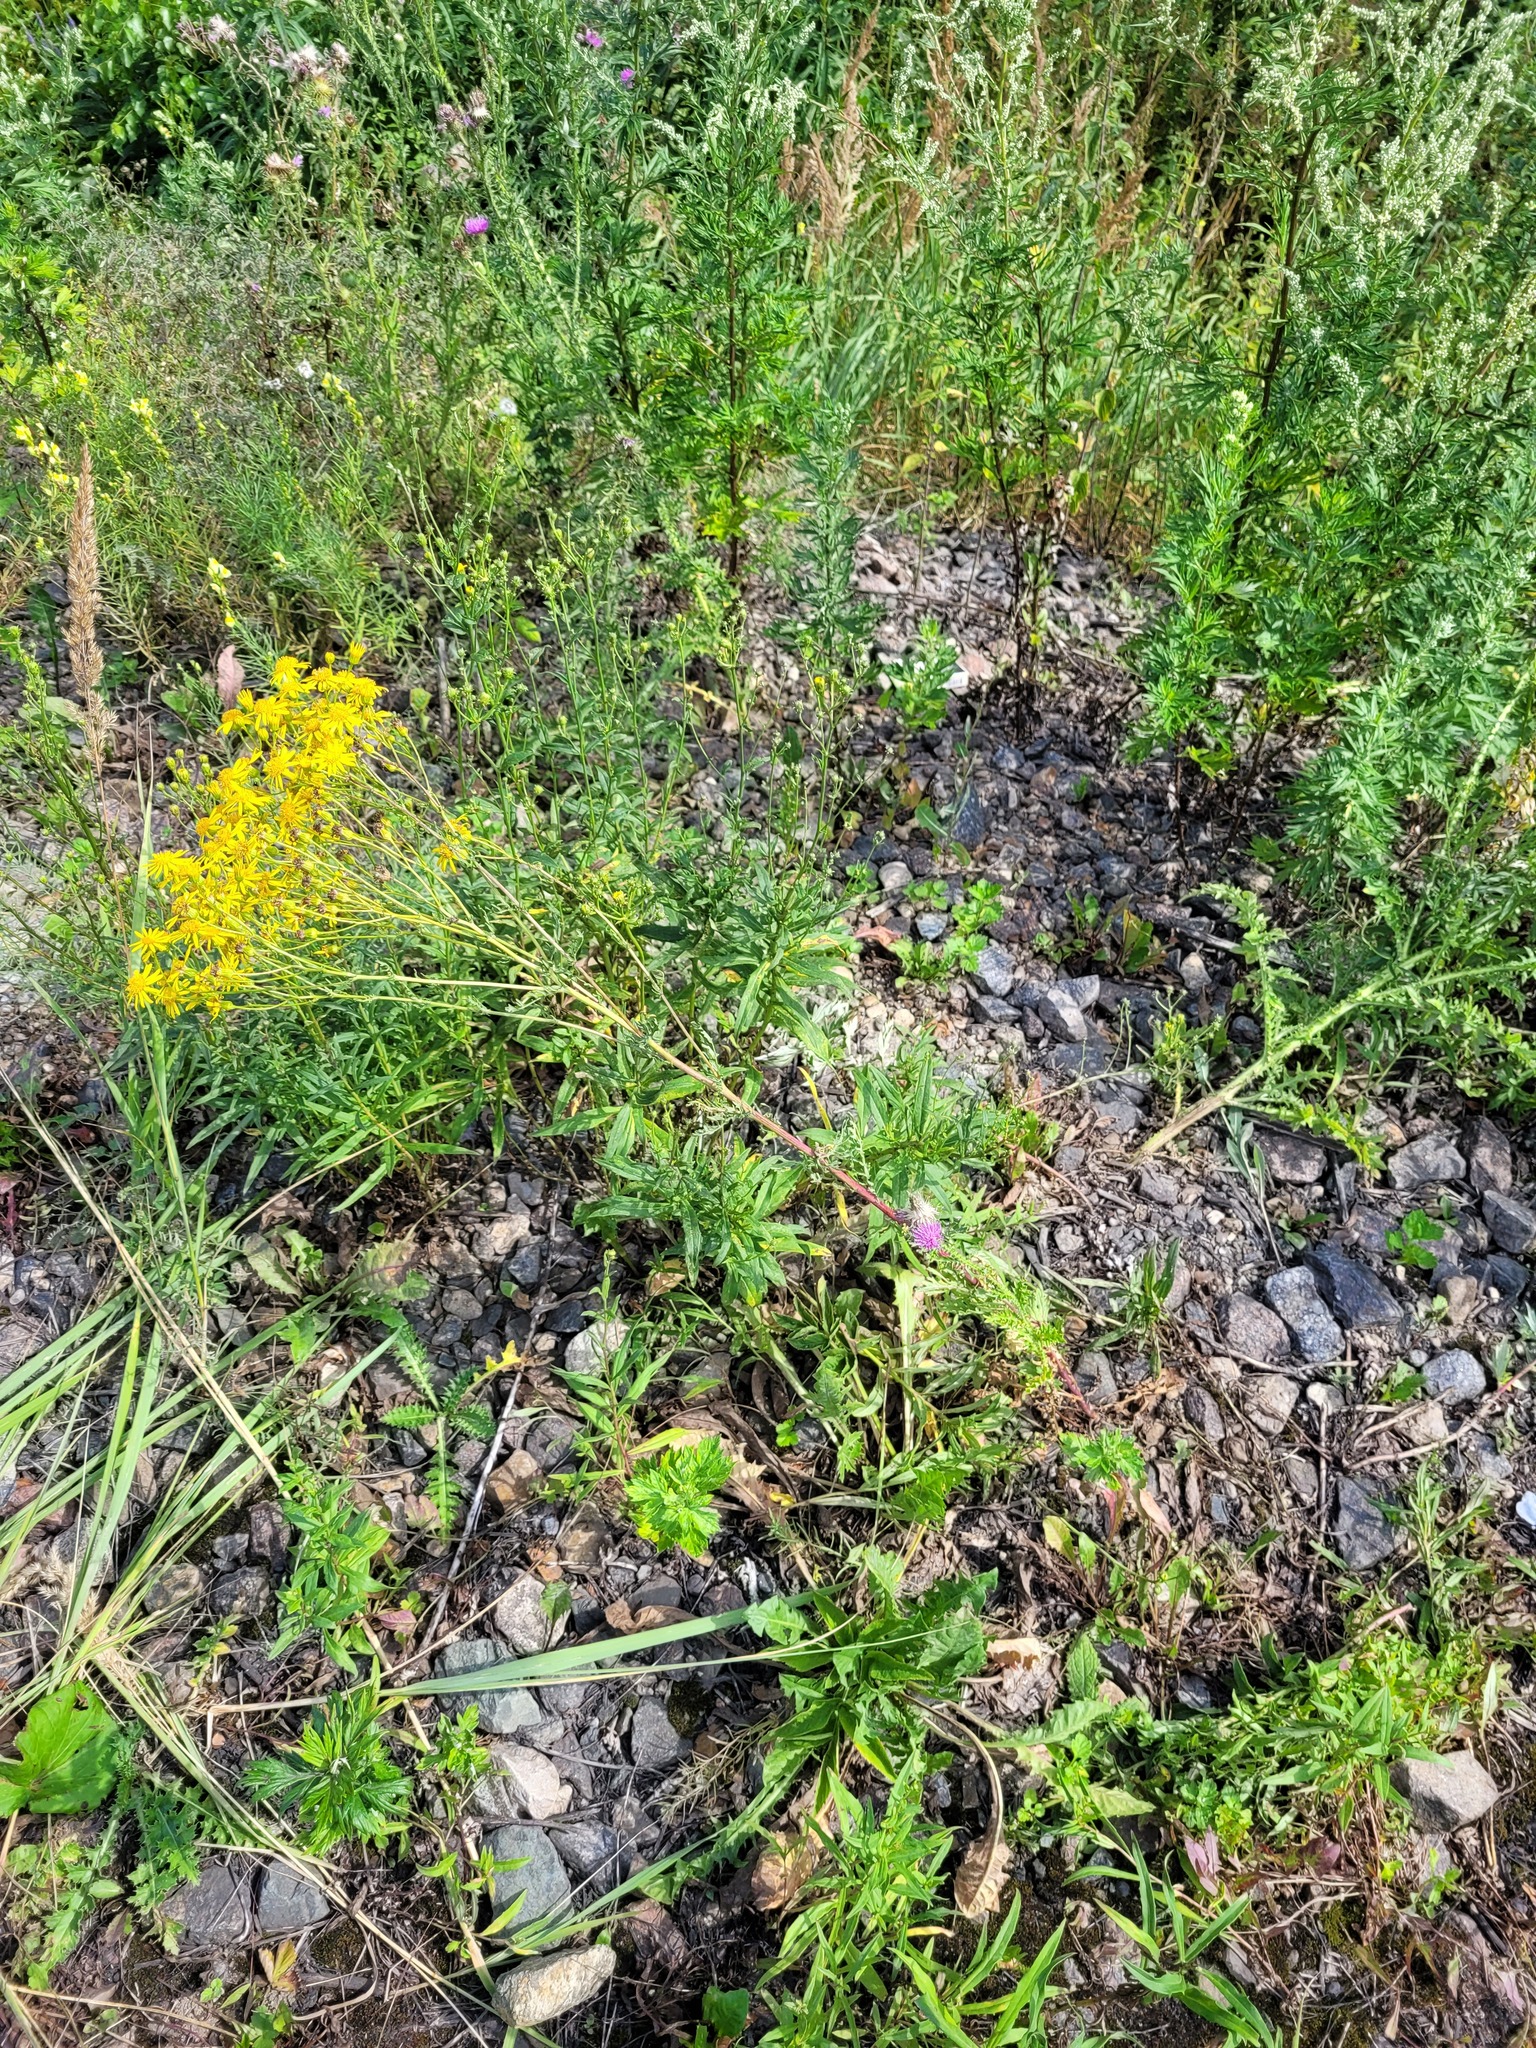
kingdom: Plantae
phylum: Tracheophyta
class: Magnoliopsida
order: Asterales
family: Asteraceae
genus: Jacobaea
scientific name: Jacobaea vulgaris
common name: Stinking willie
